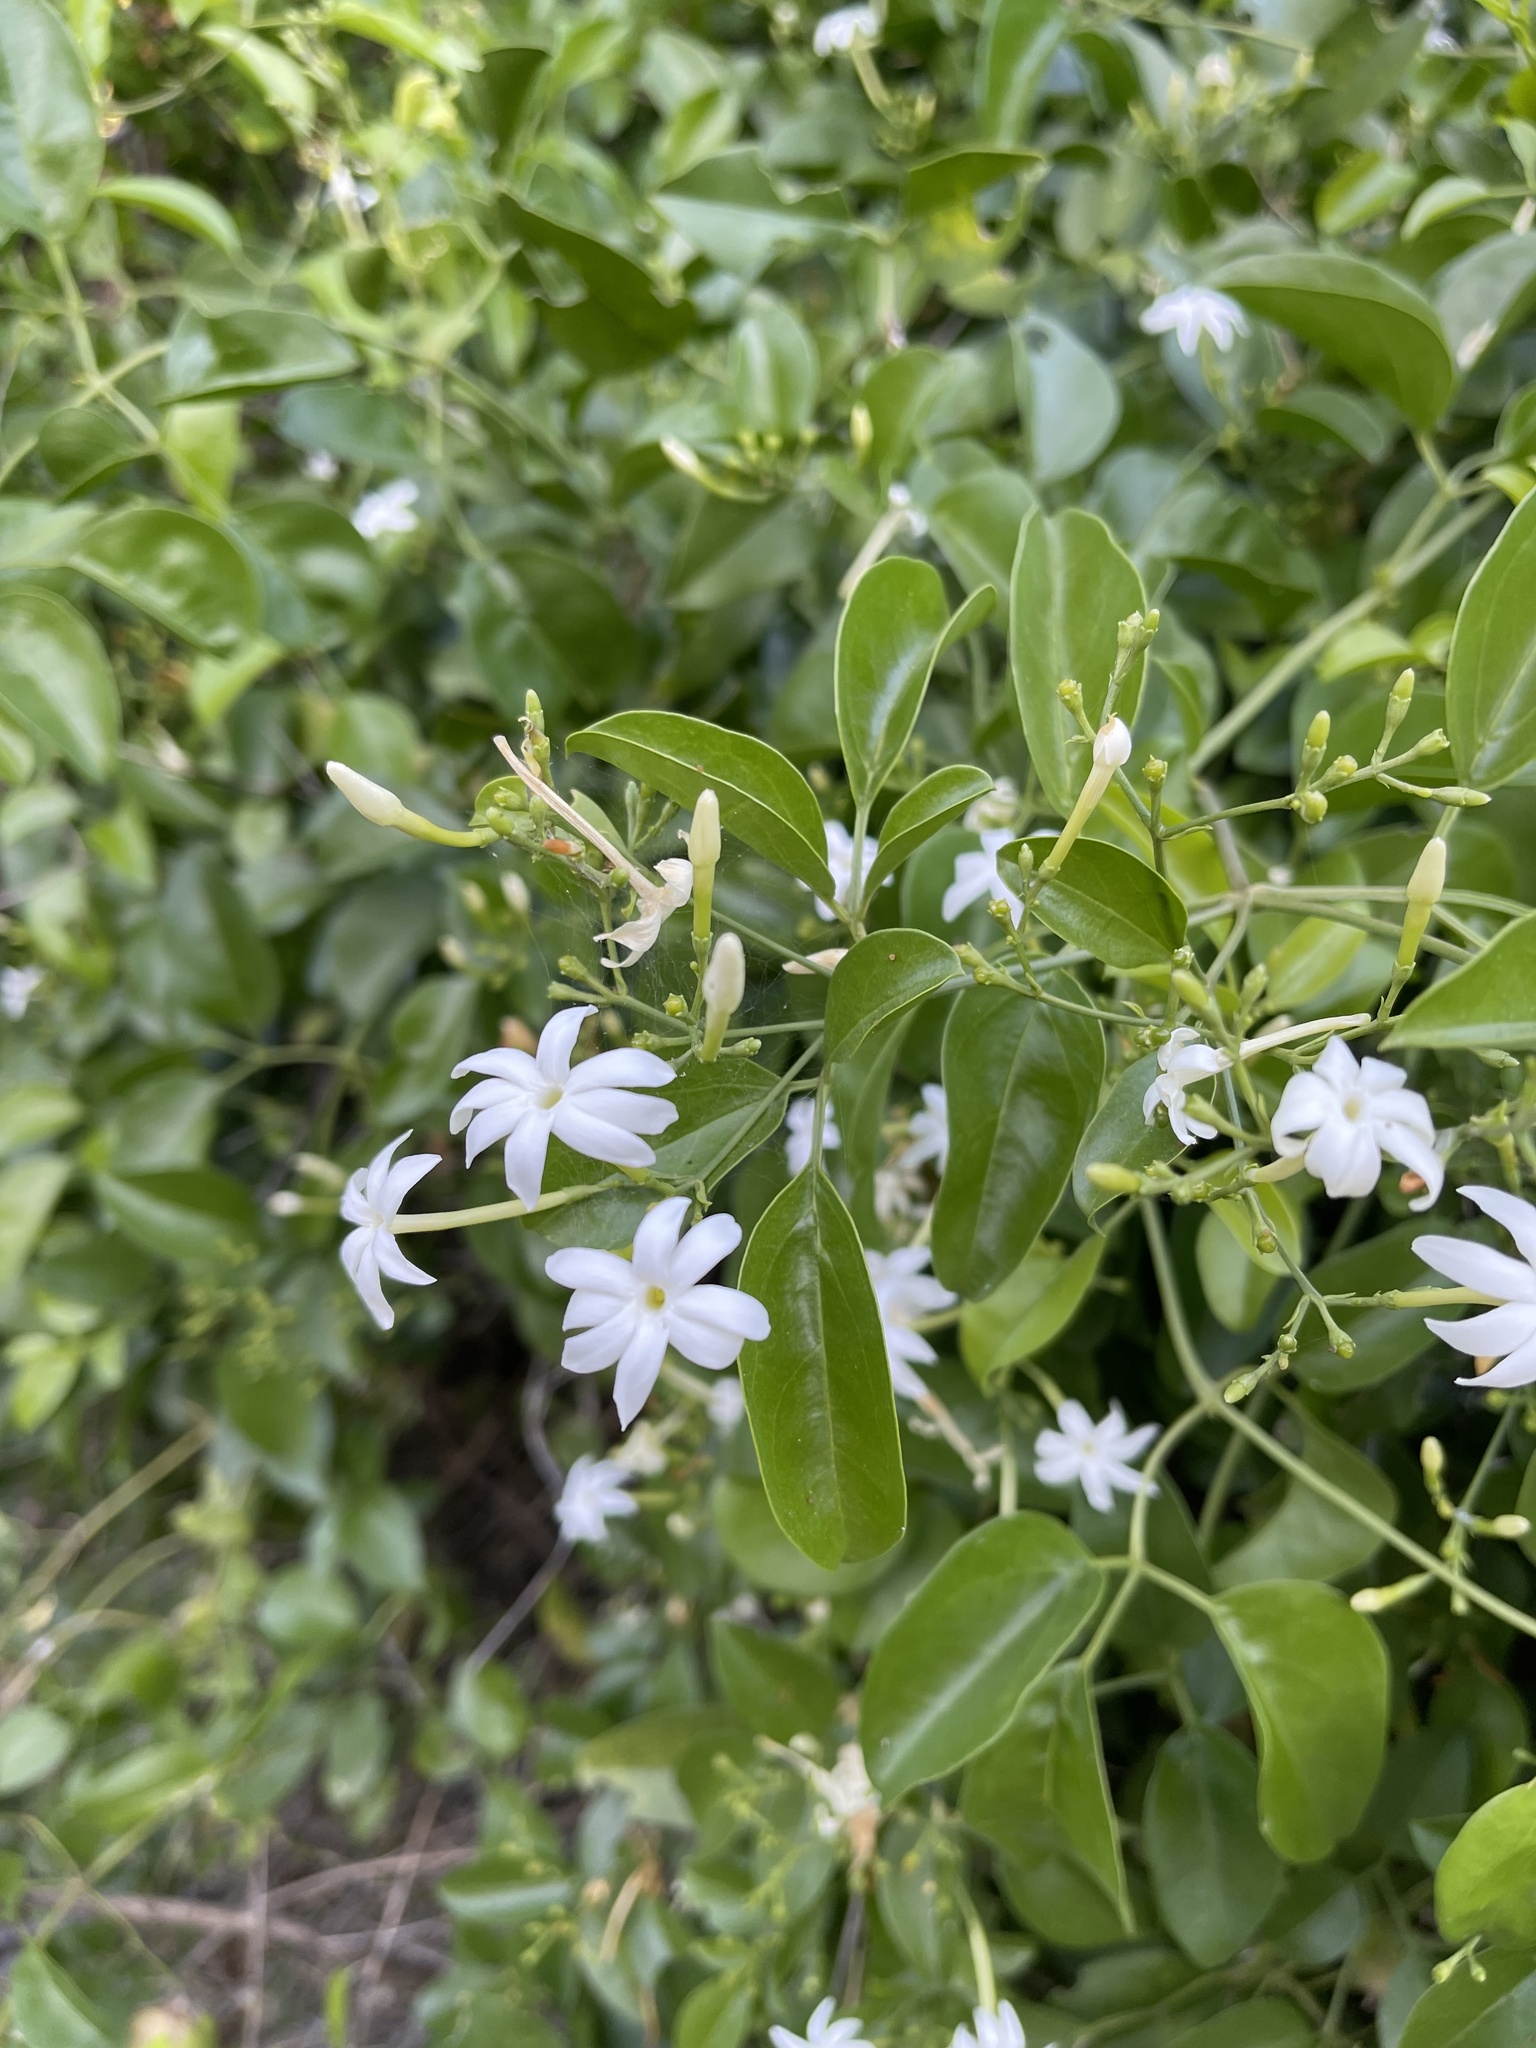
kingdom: Plantae
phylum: Tracheophyta
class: Magnoliopsida
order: Lamiales
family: Oleaceae
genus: Jasminum
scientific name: Jasminum fluminense
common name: Brazilian jasmine
